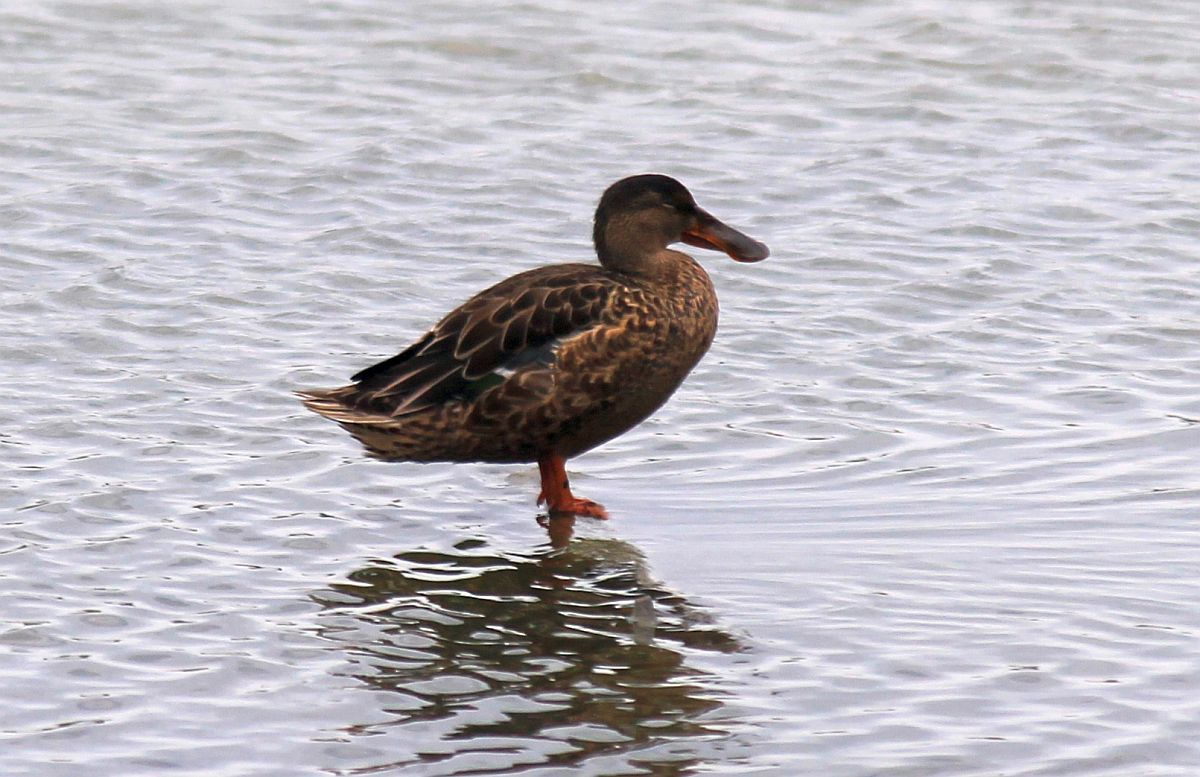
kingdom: Animalia
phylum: Chordata
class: Aves
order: Anseriformes
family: Anatidae
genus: Spatula
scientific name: Spatula clypeata
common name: Northern shoveler
